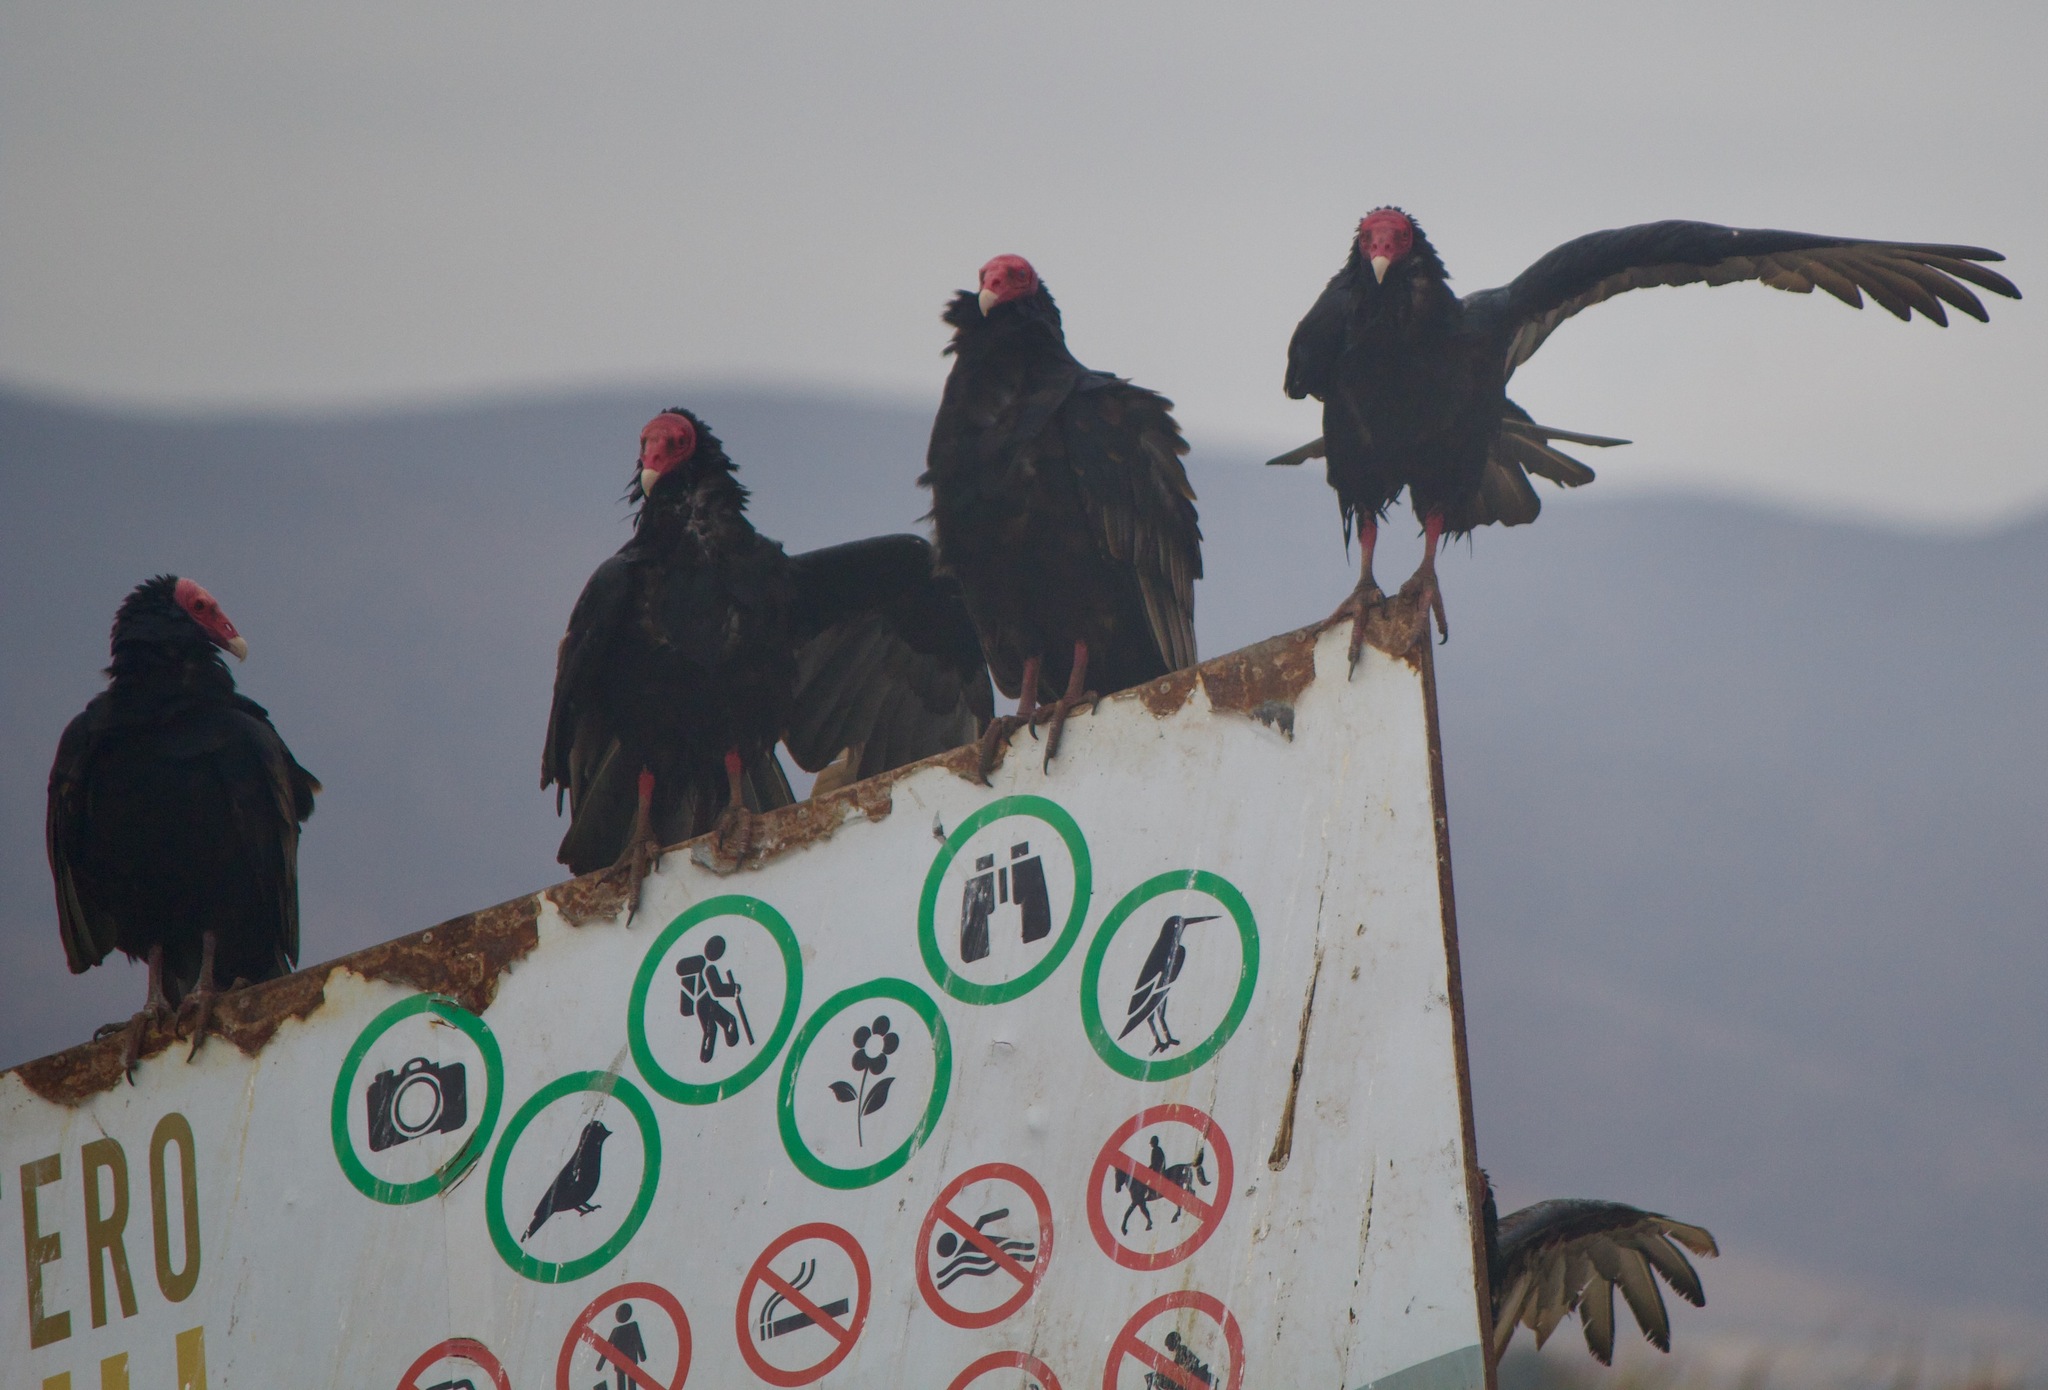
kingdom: Animalia
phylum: Chordata
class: Aves
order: Accipitriformes
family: Cathartidae
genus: Cathartes
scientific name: Cathartes aura
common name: Turkey vulture
